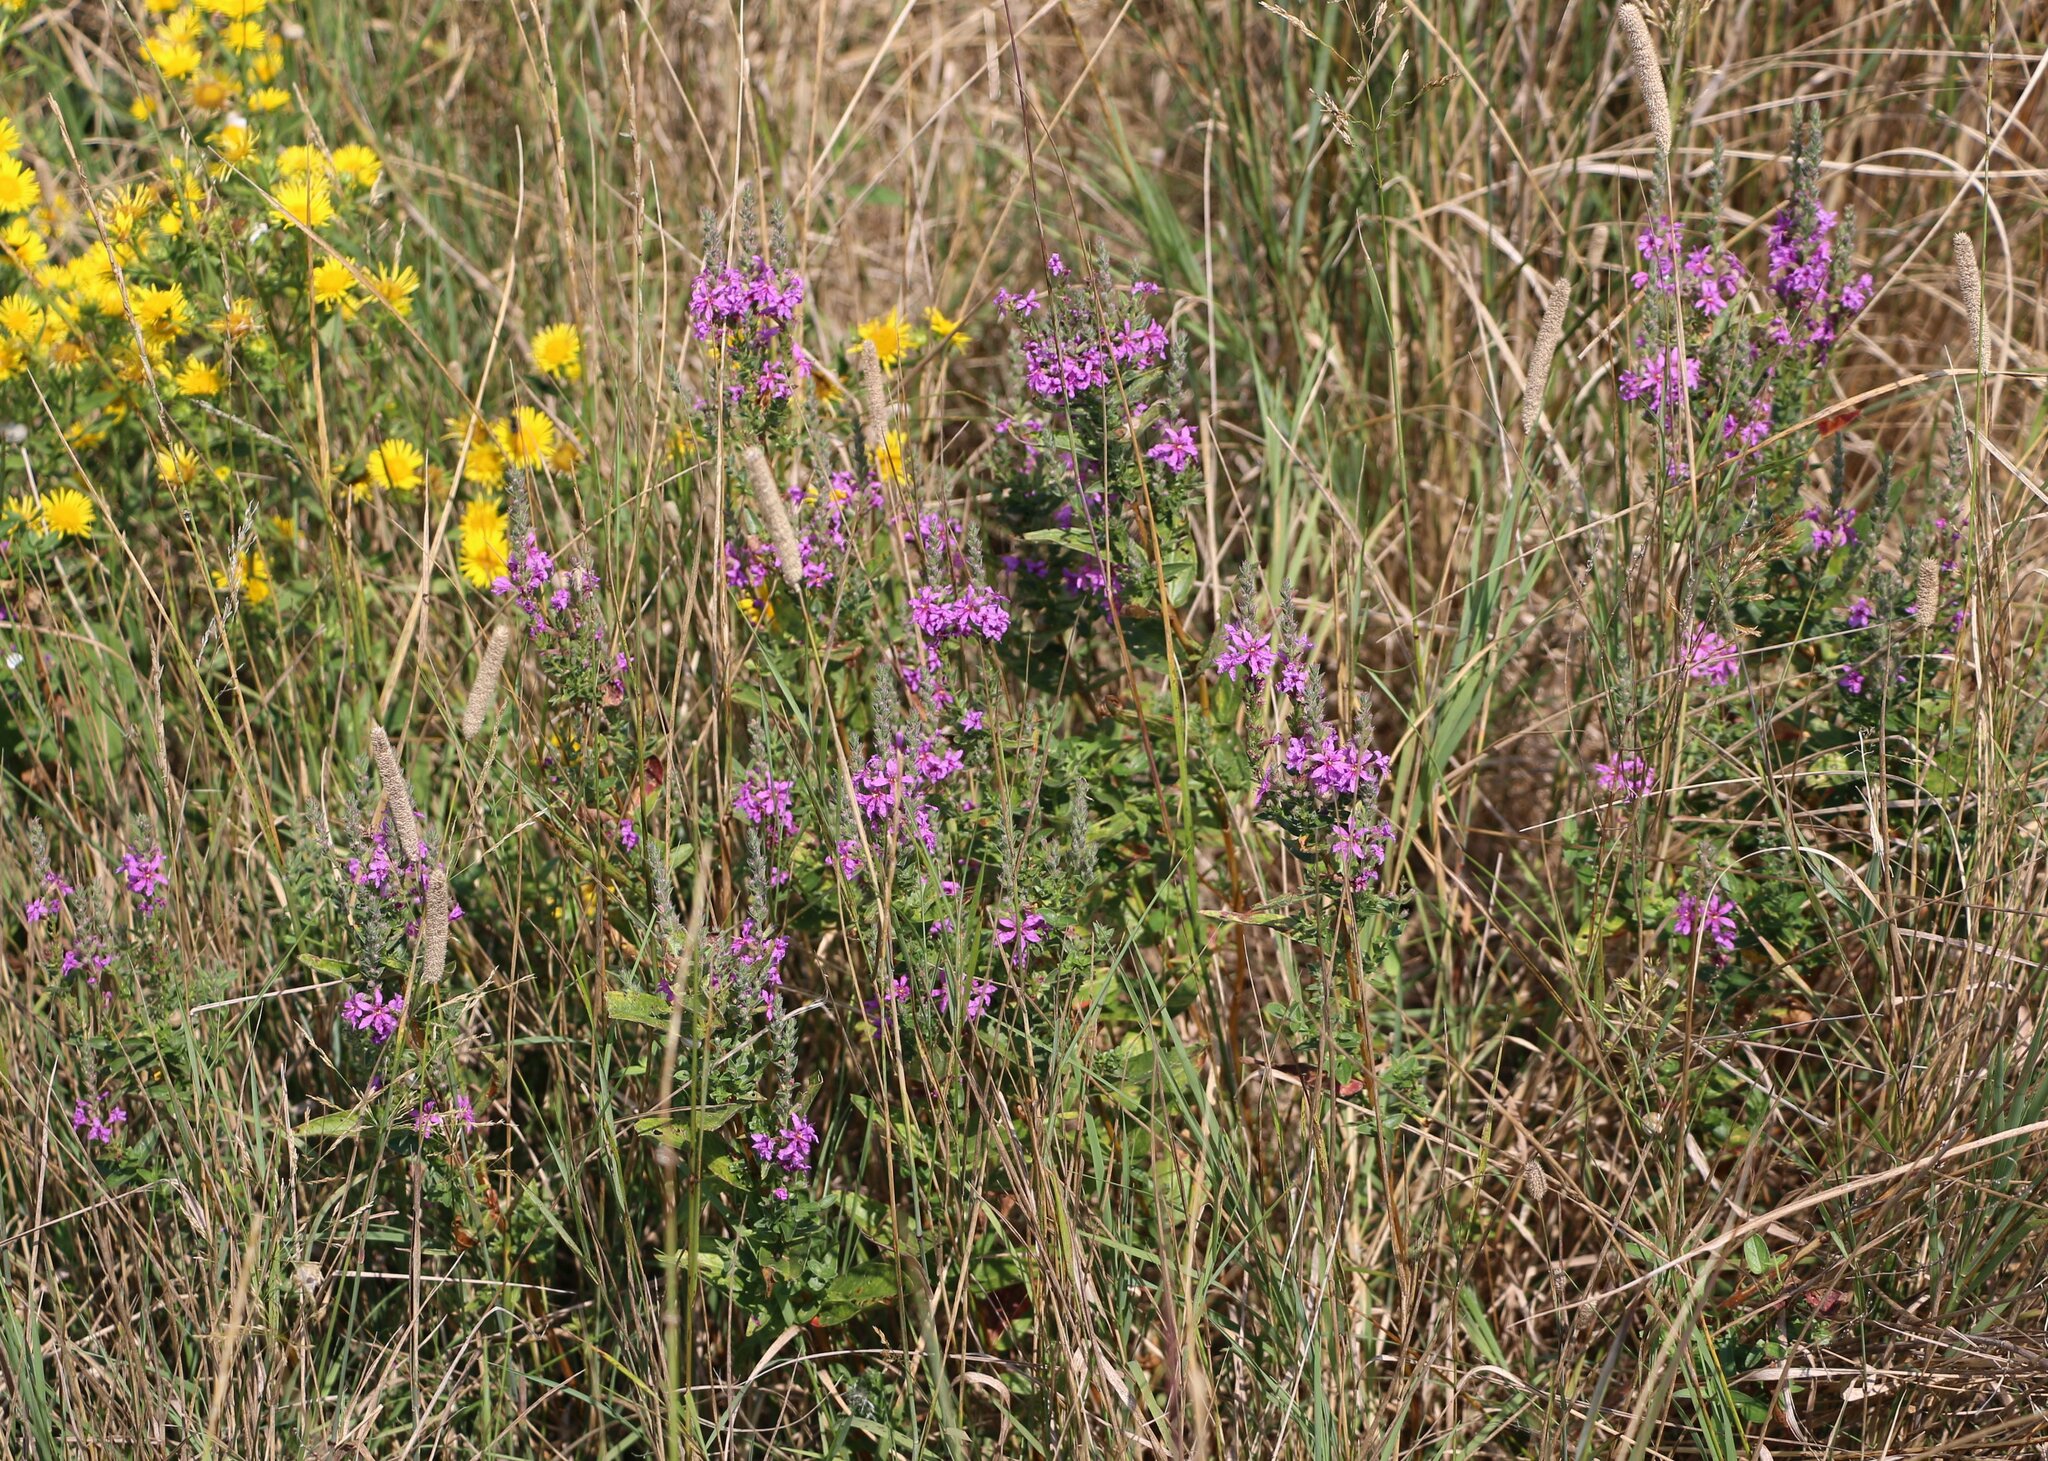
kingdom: Plantae
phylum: Tracheophyta
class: Magnoliopsida
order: Myrtales
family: Lythraceae
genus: Lythrum
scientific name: Lythrum salicaria
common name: Purple loosestrife
